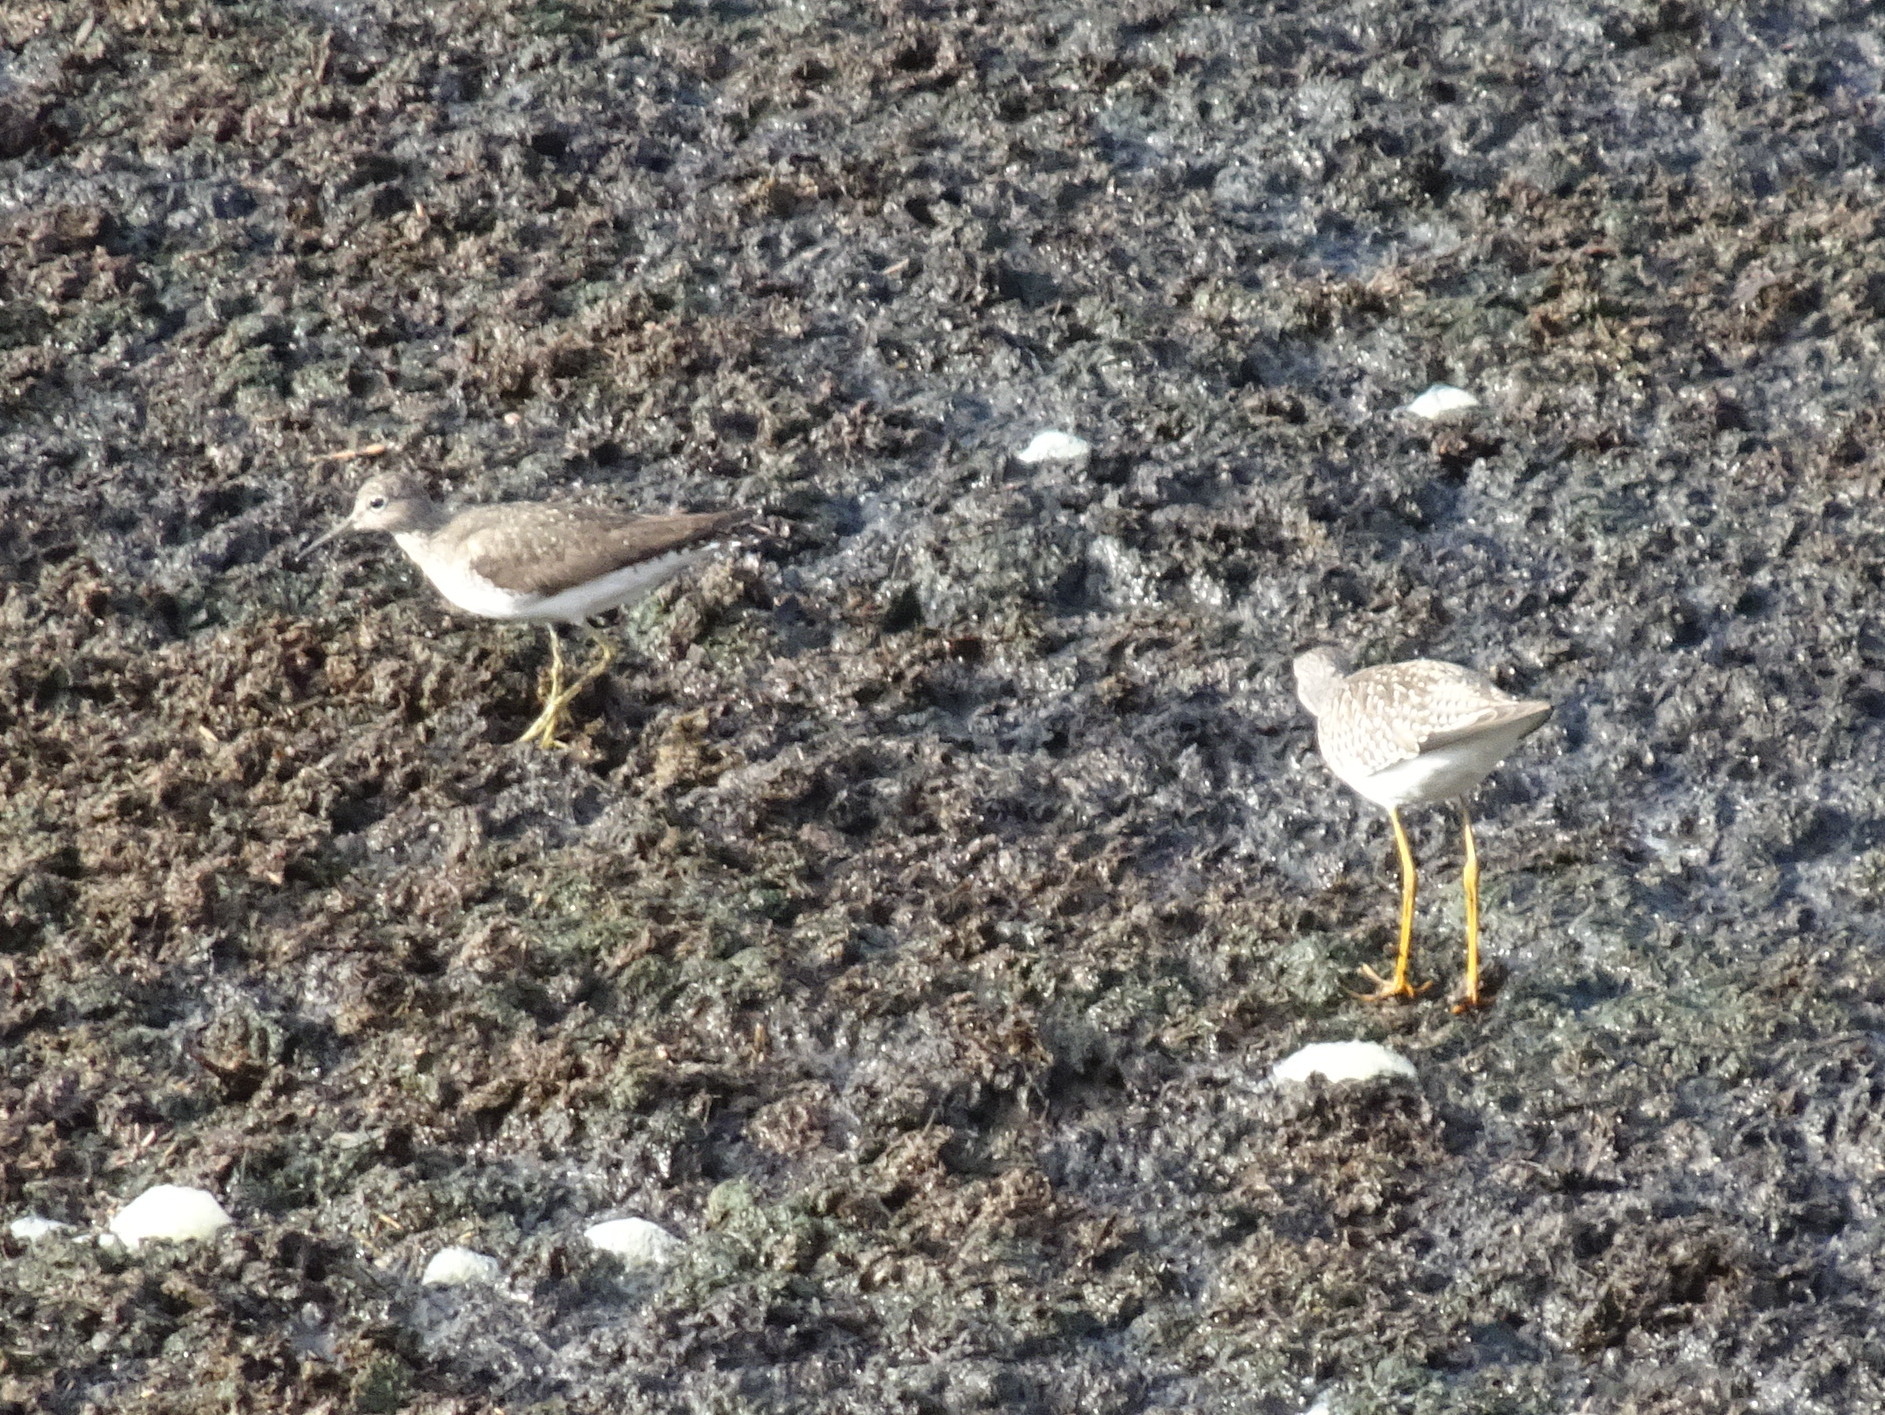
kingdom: Animalia
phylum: Chordata
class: Aves
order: Charadriiformes
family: Scolopacidae
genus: Tringa
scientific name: Tringa solitaria
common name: Solitary sandpiper
